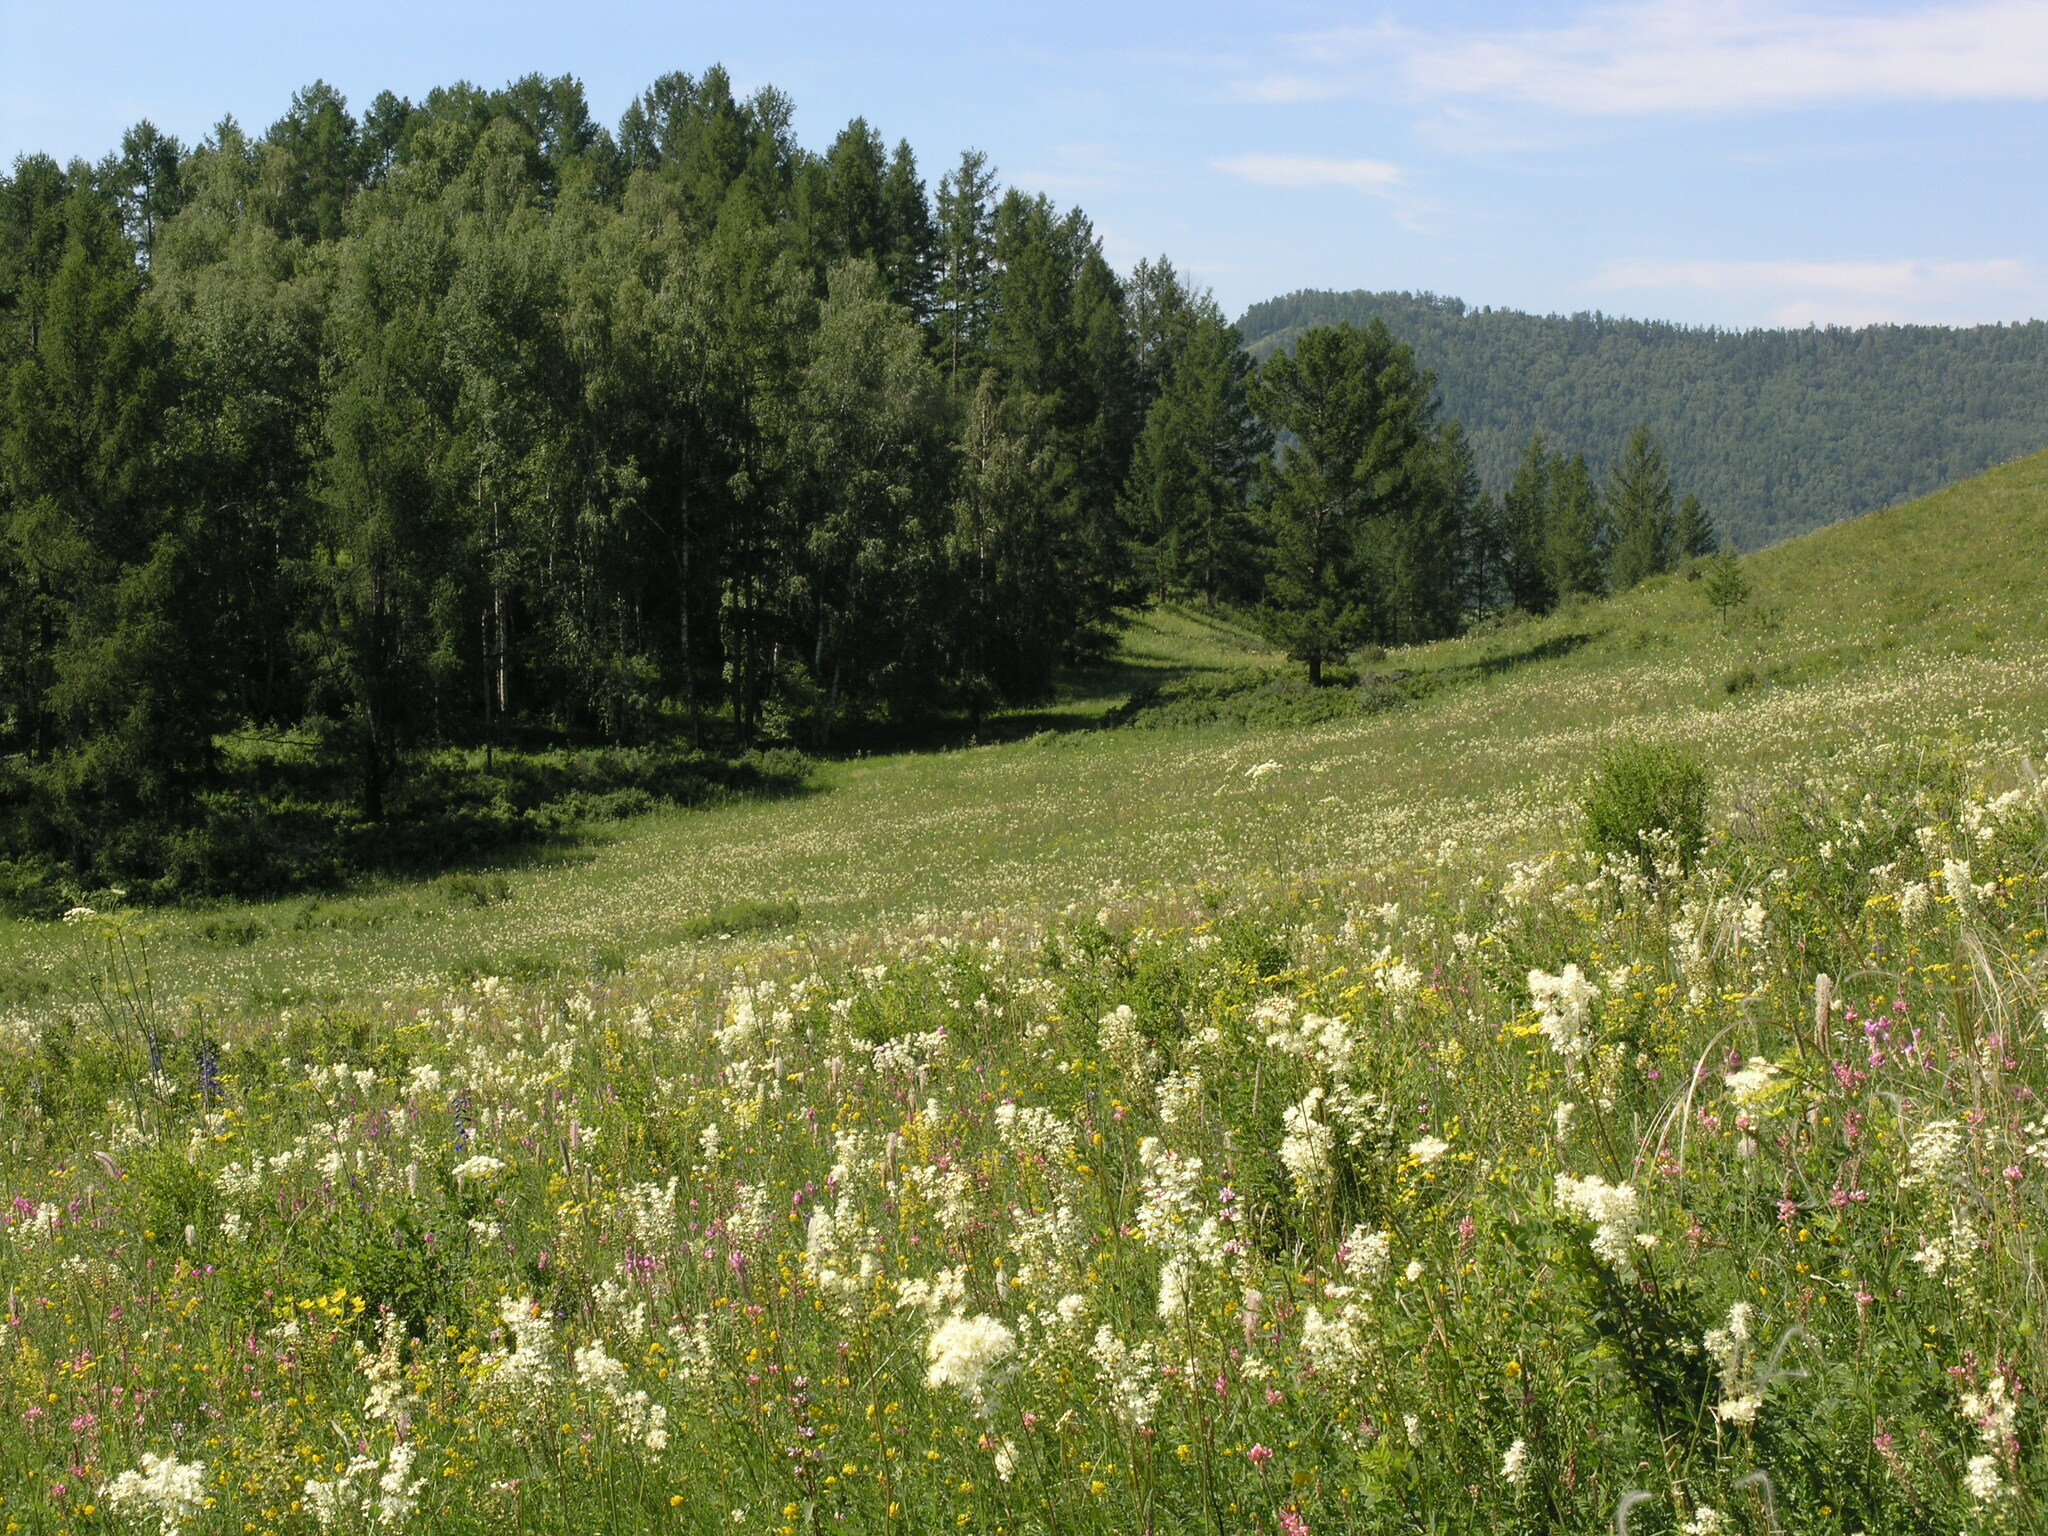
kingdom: Plantae
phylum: Tracheophyta
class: Magnoliopsida
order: Rosales
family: Rosaceae
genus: Filipendula
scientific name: Filipendula vulgaris
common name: Dropwort
